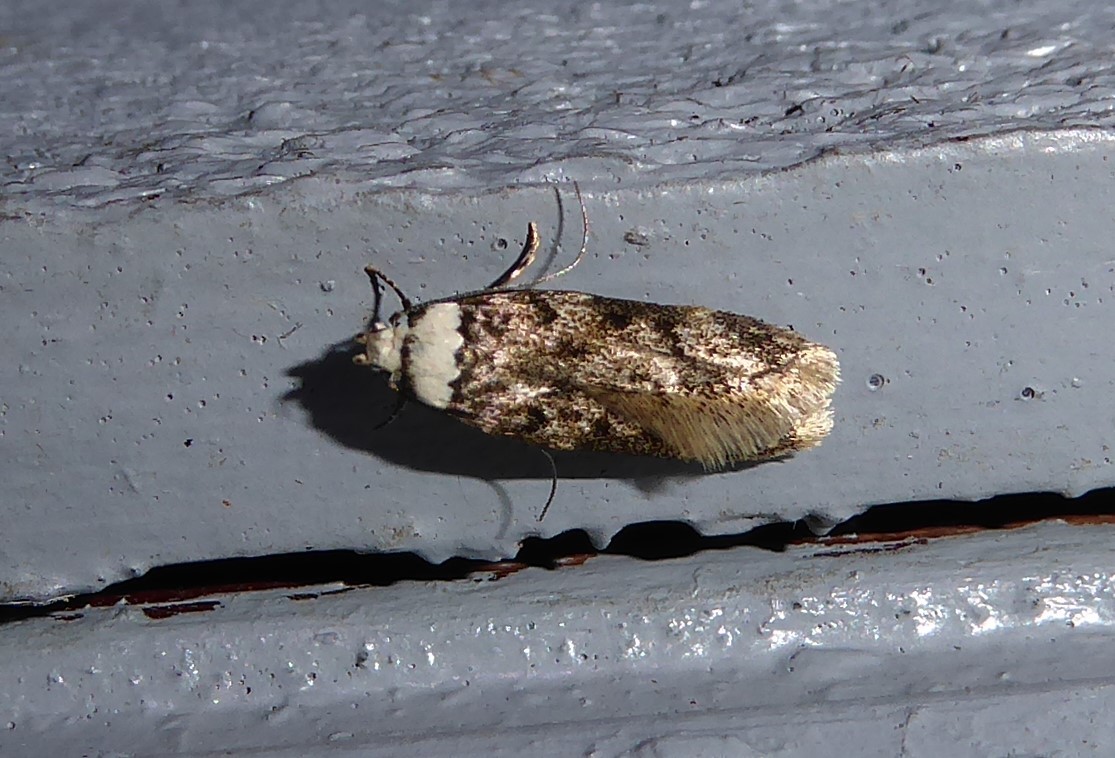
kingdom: Animalia
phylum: Arthropoda
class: Insecta
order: Lepidoptera
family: Oecophoridae
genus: Endrosis
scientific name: Endrosis sarcitrella
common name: White-shouldered house moth
